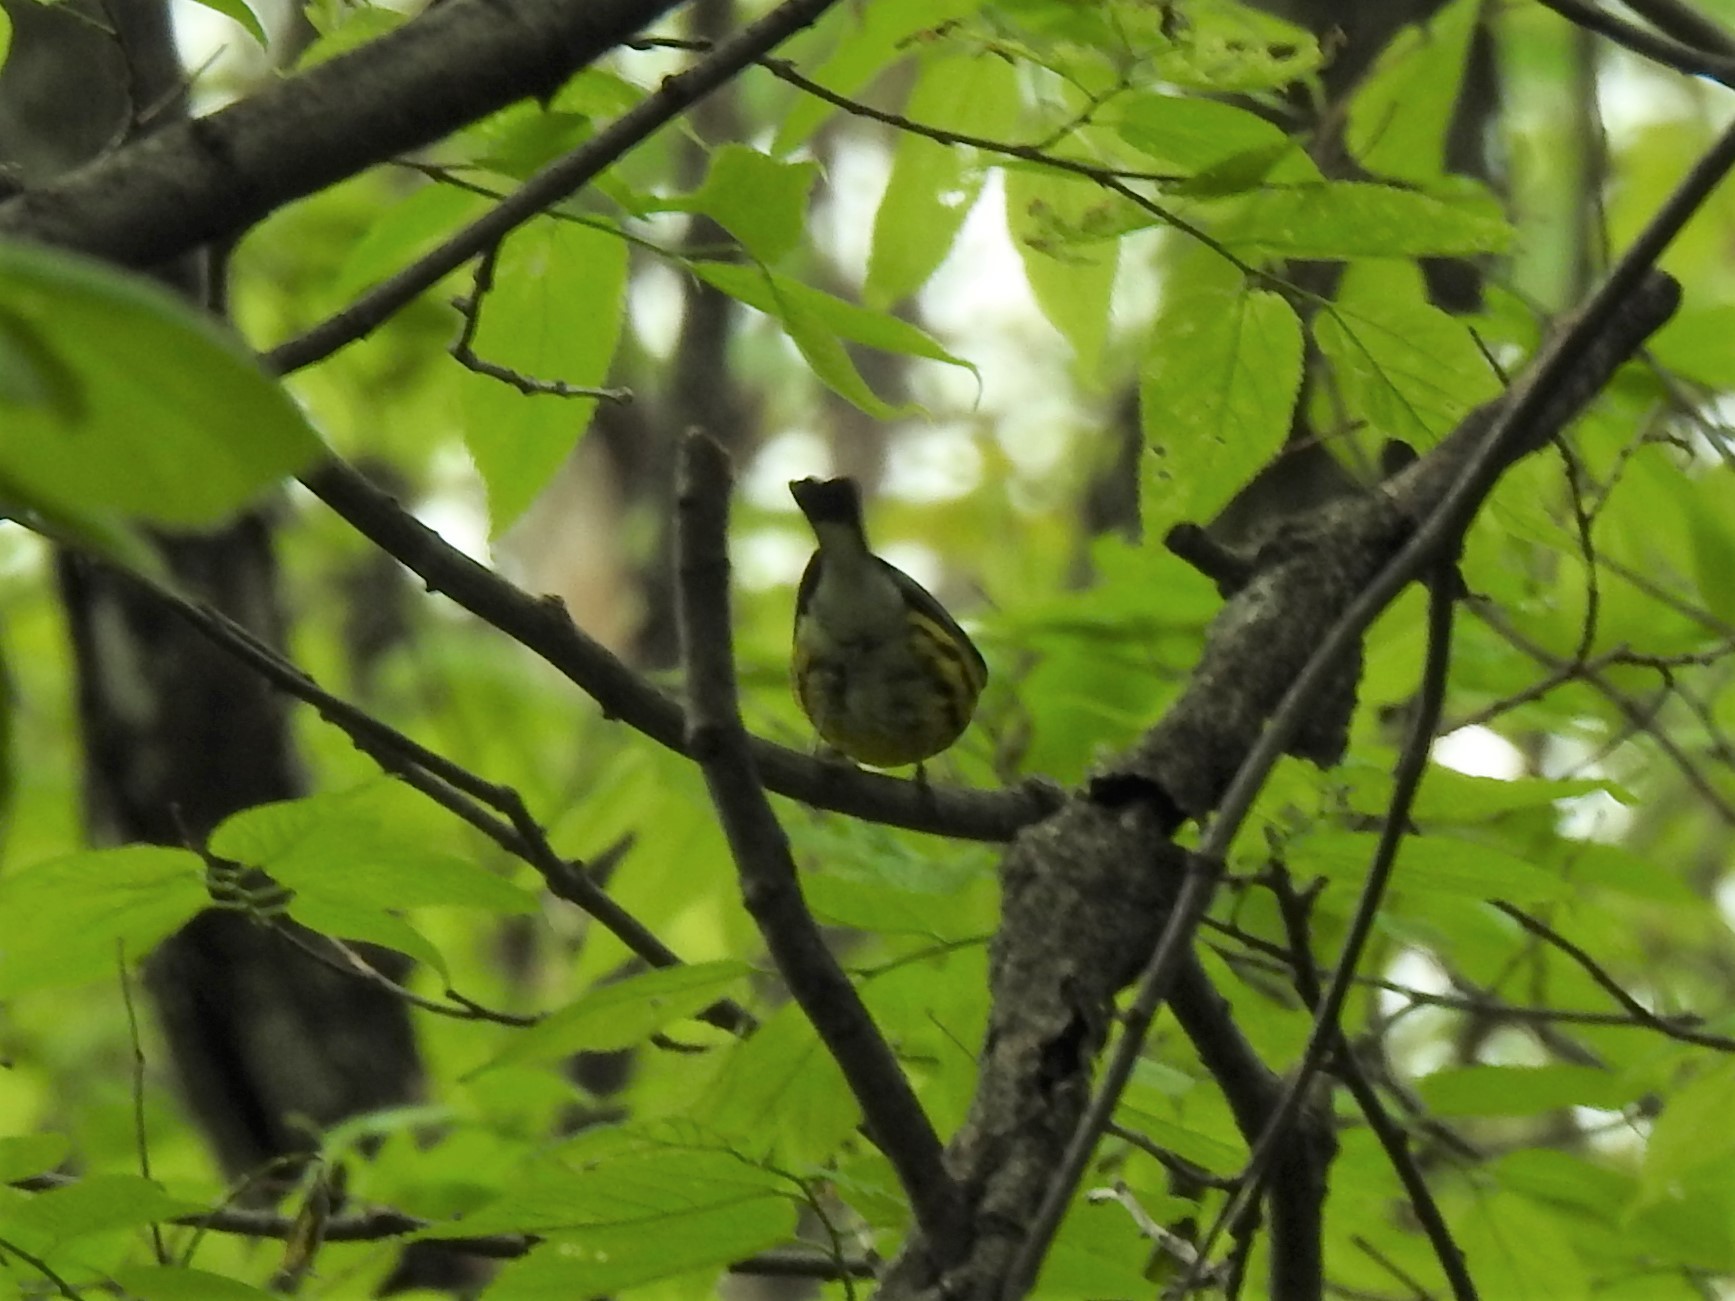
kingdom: Animalia
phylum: Chordata
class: Aves
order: Passeriformes
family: Parulidae
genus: Setophaga
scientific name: Setophaga magnolia
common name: Magnolia warbler
